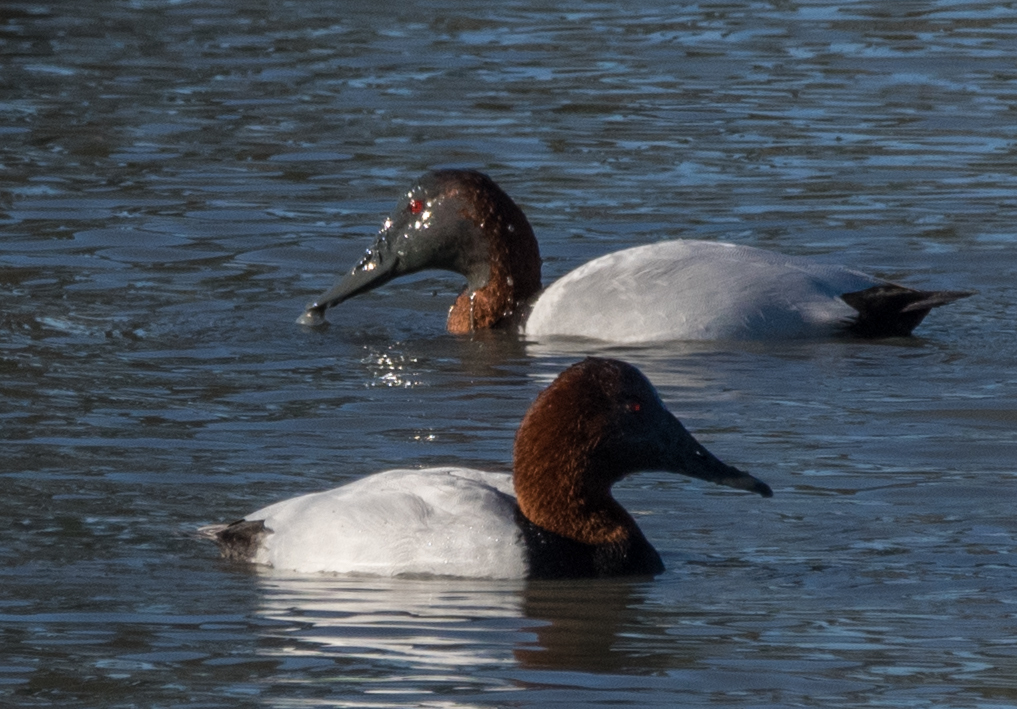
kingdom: Animalia
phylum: Chordata
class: Aves
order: Anseriformes
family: Anatidae
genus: Aythya
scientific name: Aythya valisineria
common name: Canvasback
